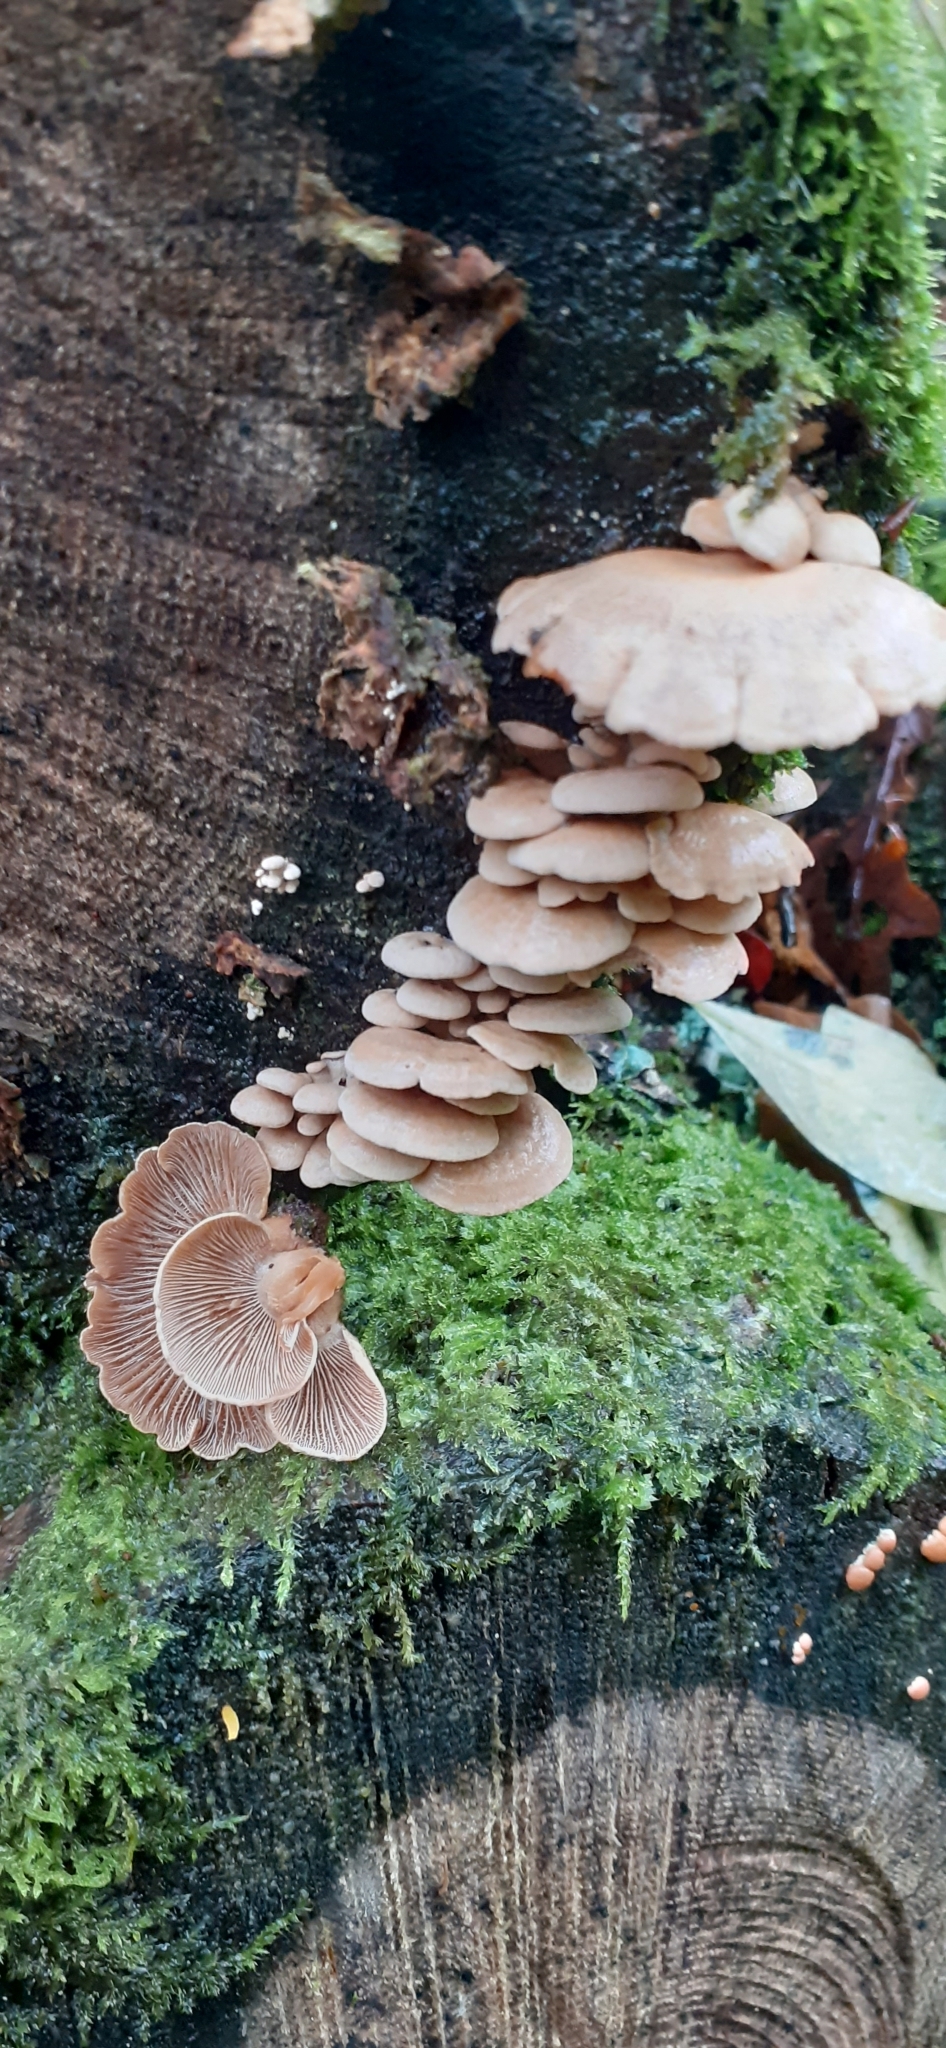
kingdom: Fungi
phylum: Basidiomycota
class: Agaricomycetes
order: Agaricales
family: Mycenaceae
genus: Panellus
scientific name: Panellus stipticus
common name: Bitter oysterling
